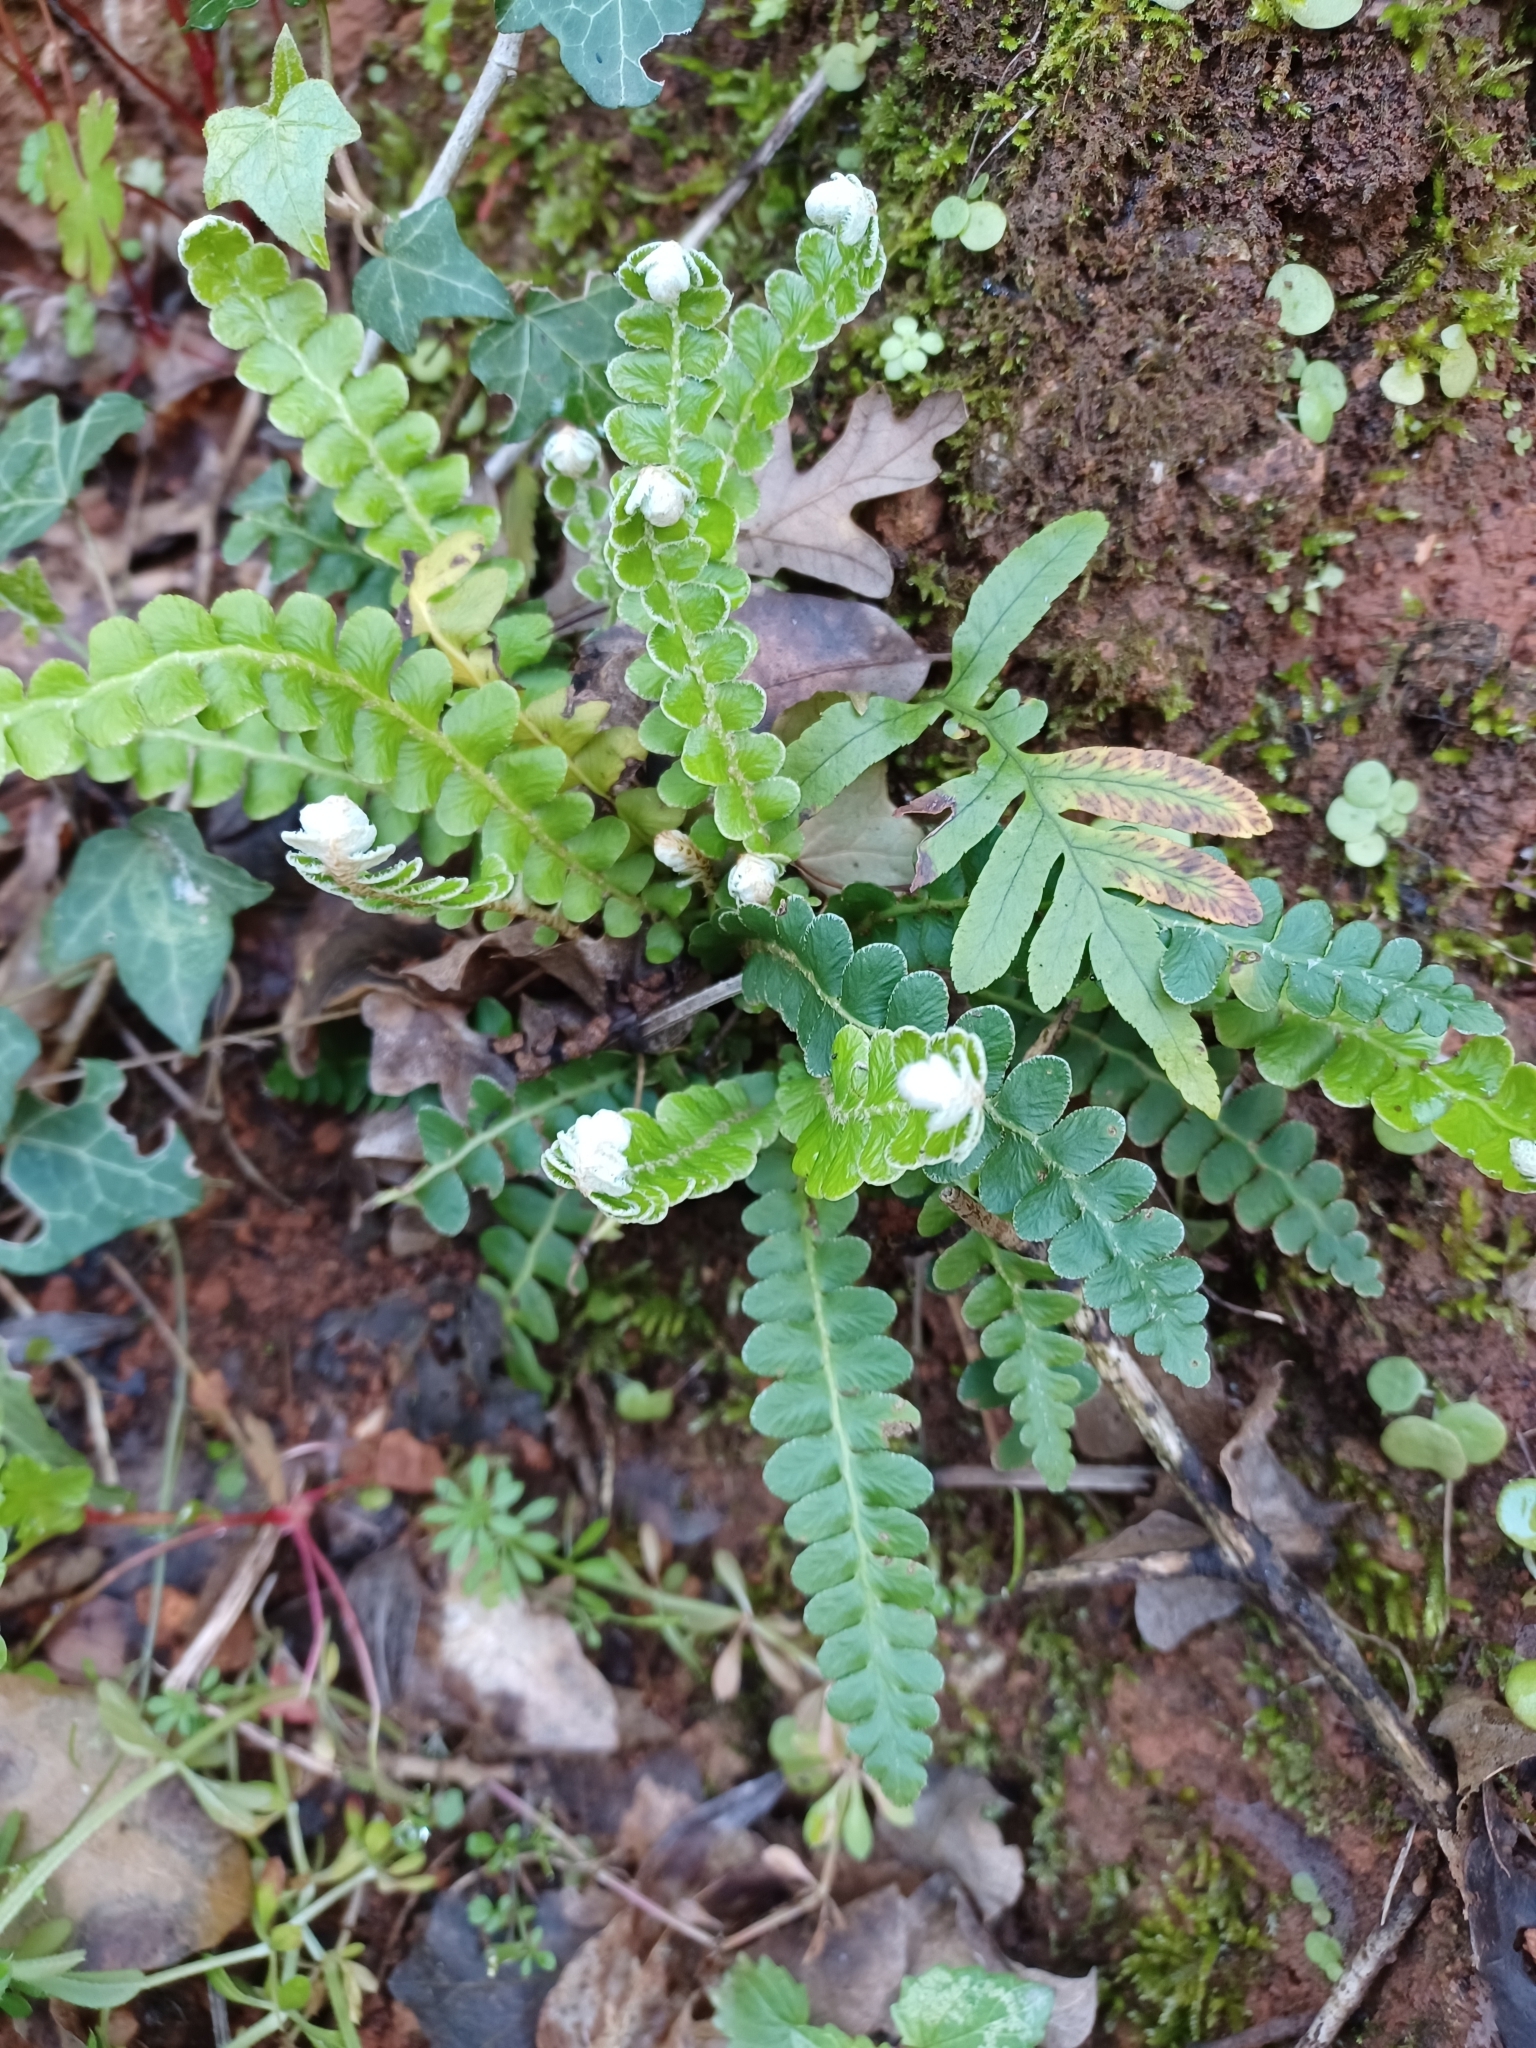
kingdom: Plantae
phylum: Tracheophyta
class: Polypodiopsida
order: Polypodiales
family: Aspleniaceae
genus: Asplenium
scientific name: Asplenium ceterach
